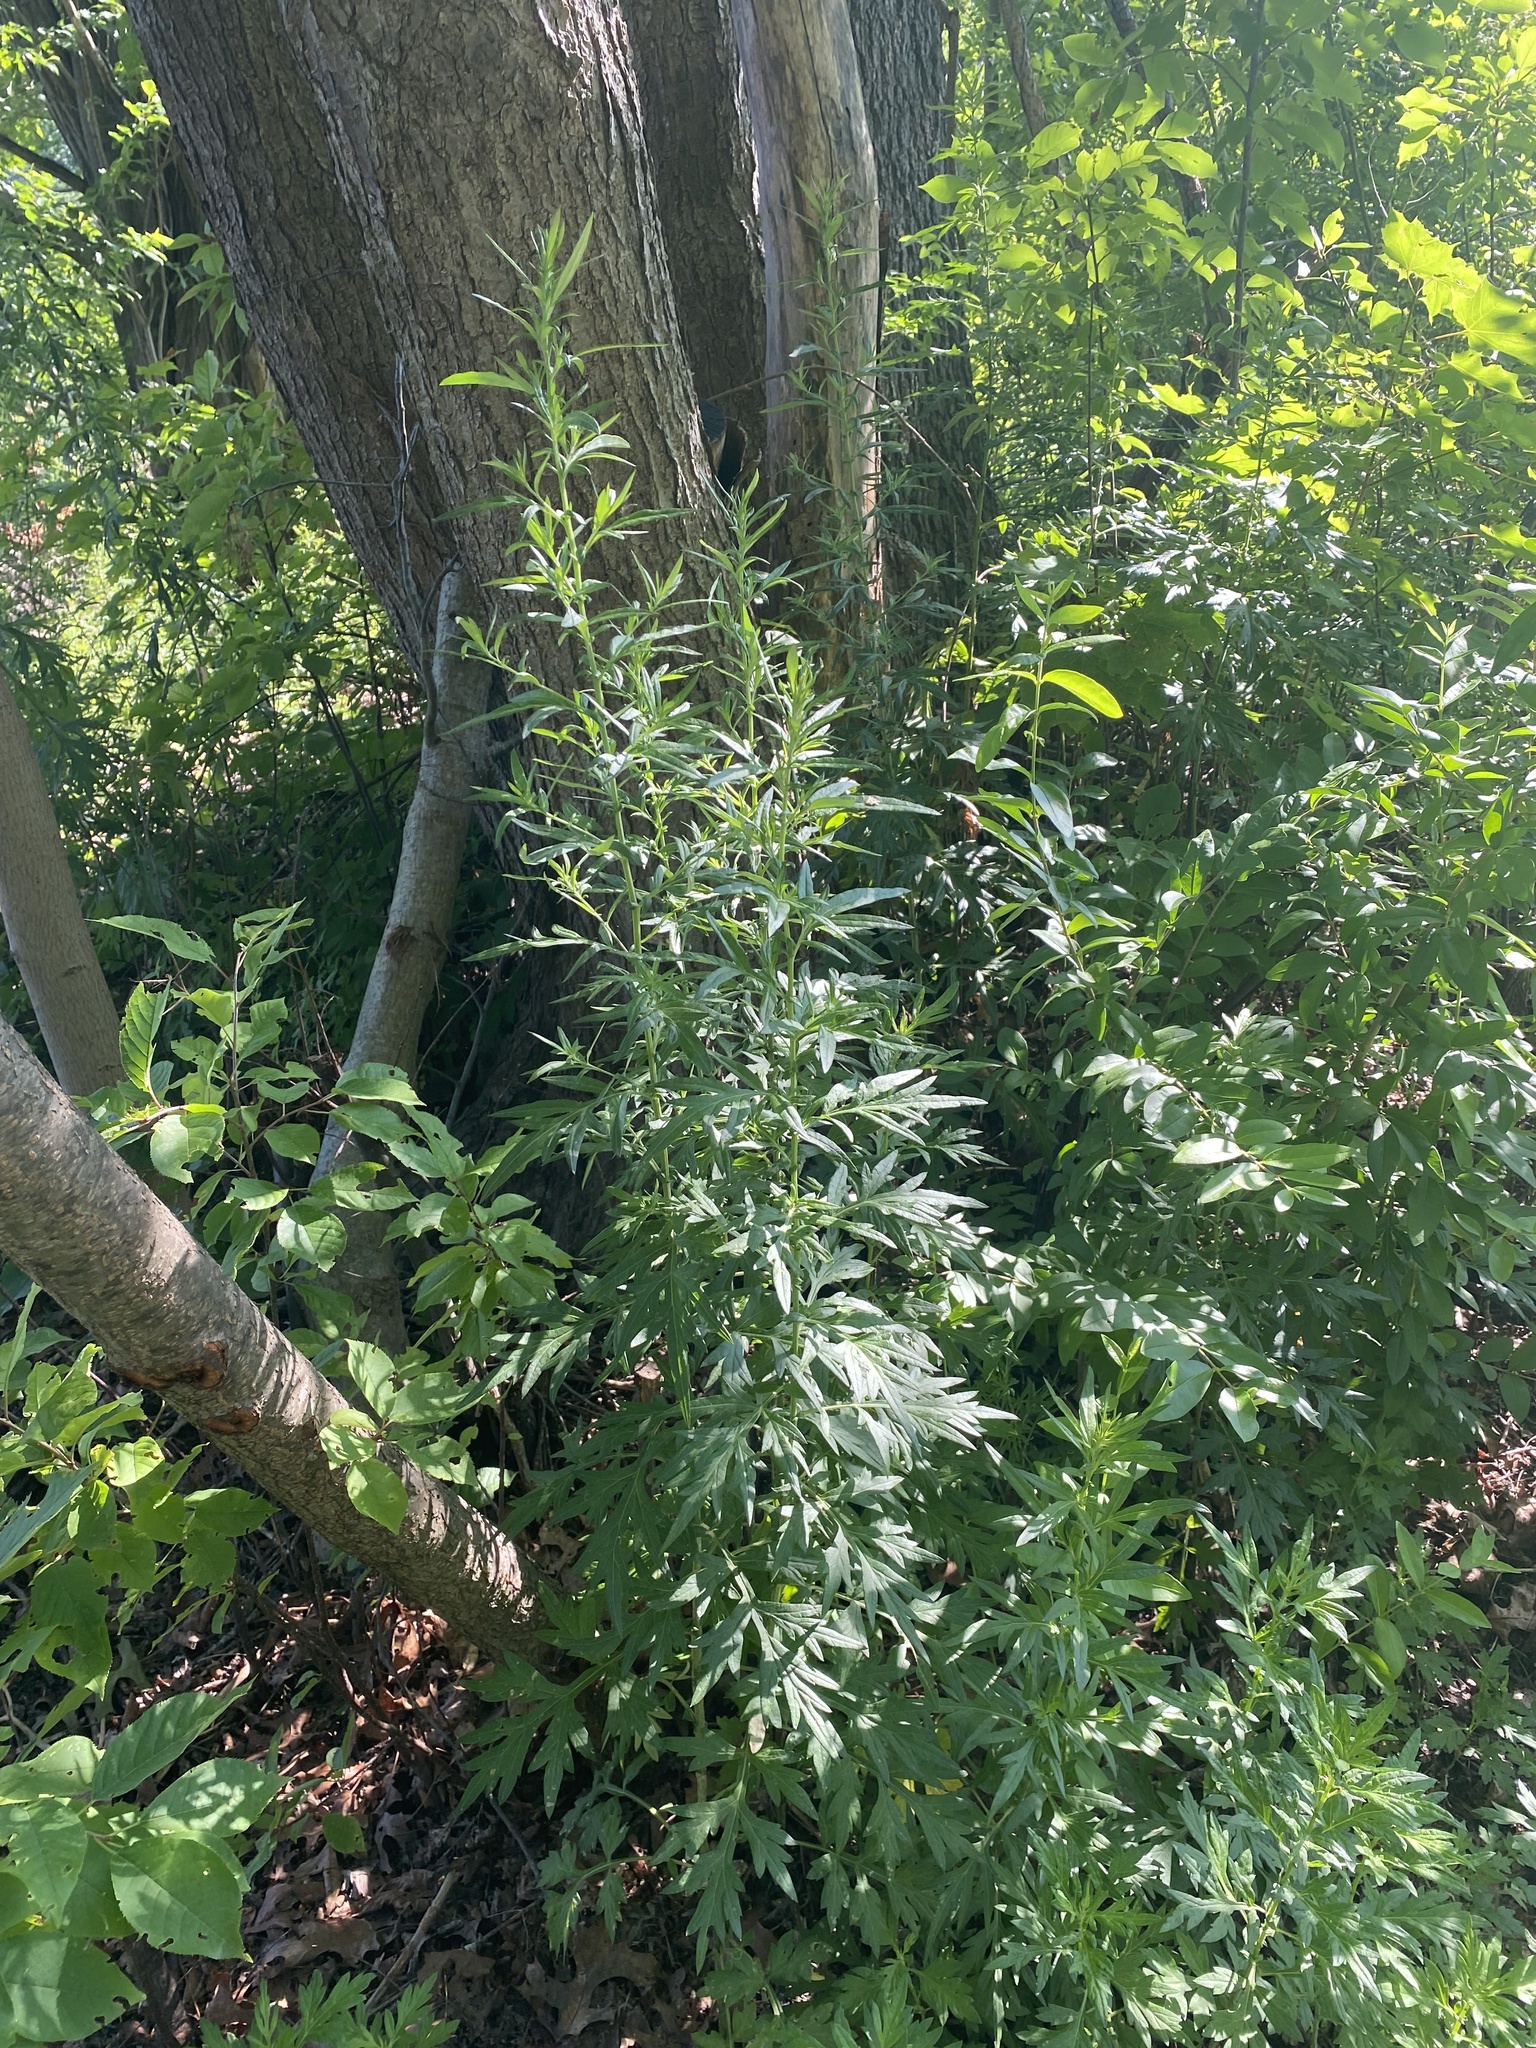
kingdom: Plantae
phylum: Tracheophyta
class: Magnoliopsida
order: Asterales
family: Asteraceae
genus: Artemisia
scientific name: Artemisia vulgaris
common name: Mugwort
